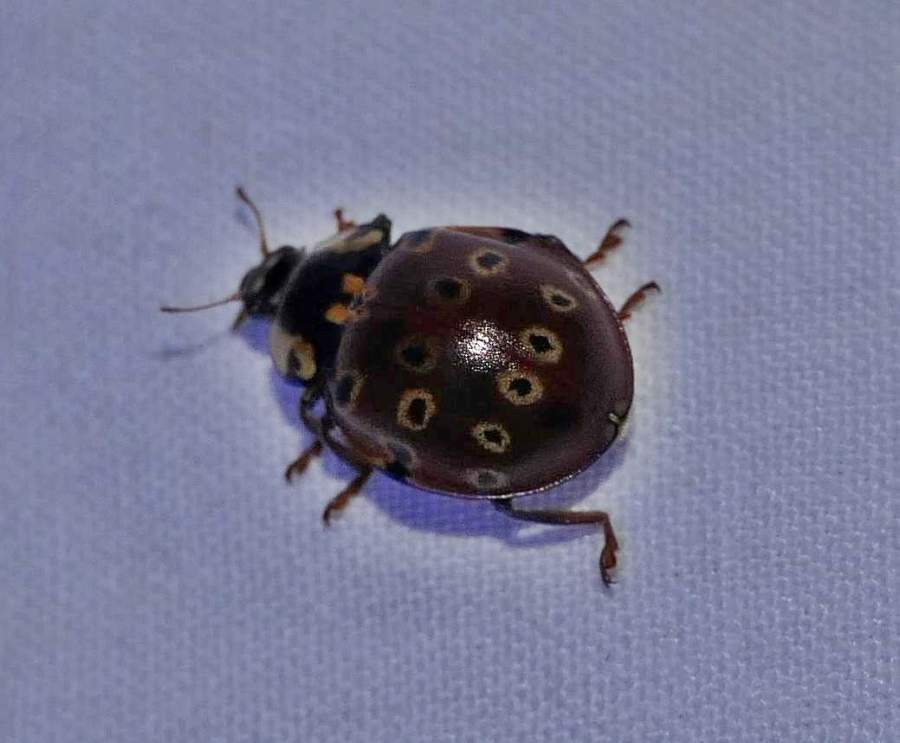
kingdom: Animalia
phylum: Arthropoda
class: Insecta
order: Coleoptera
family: Coccinellidae
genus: Anatis
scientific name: Anatis mali
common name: Eye-spotted lady beetle
